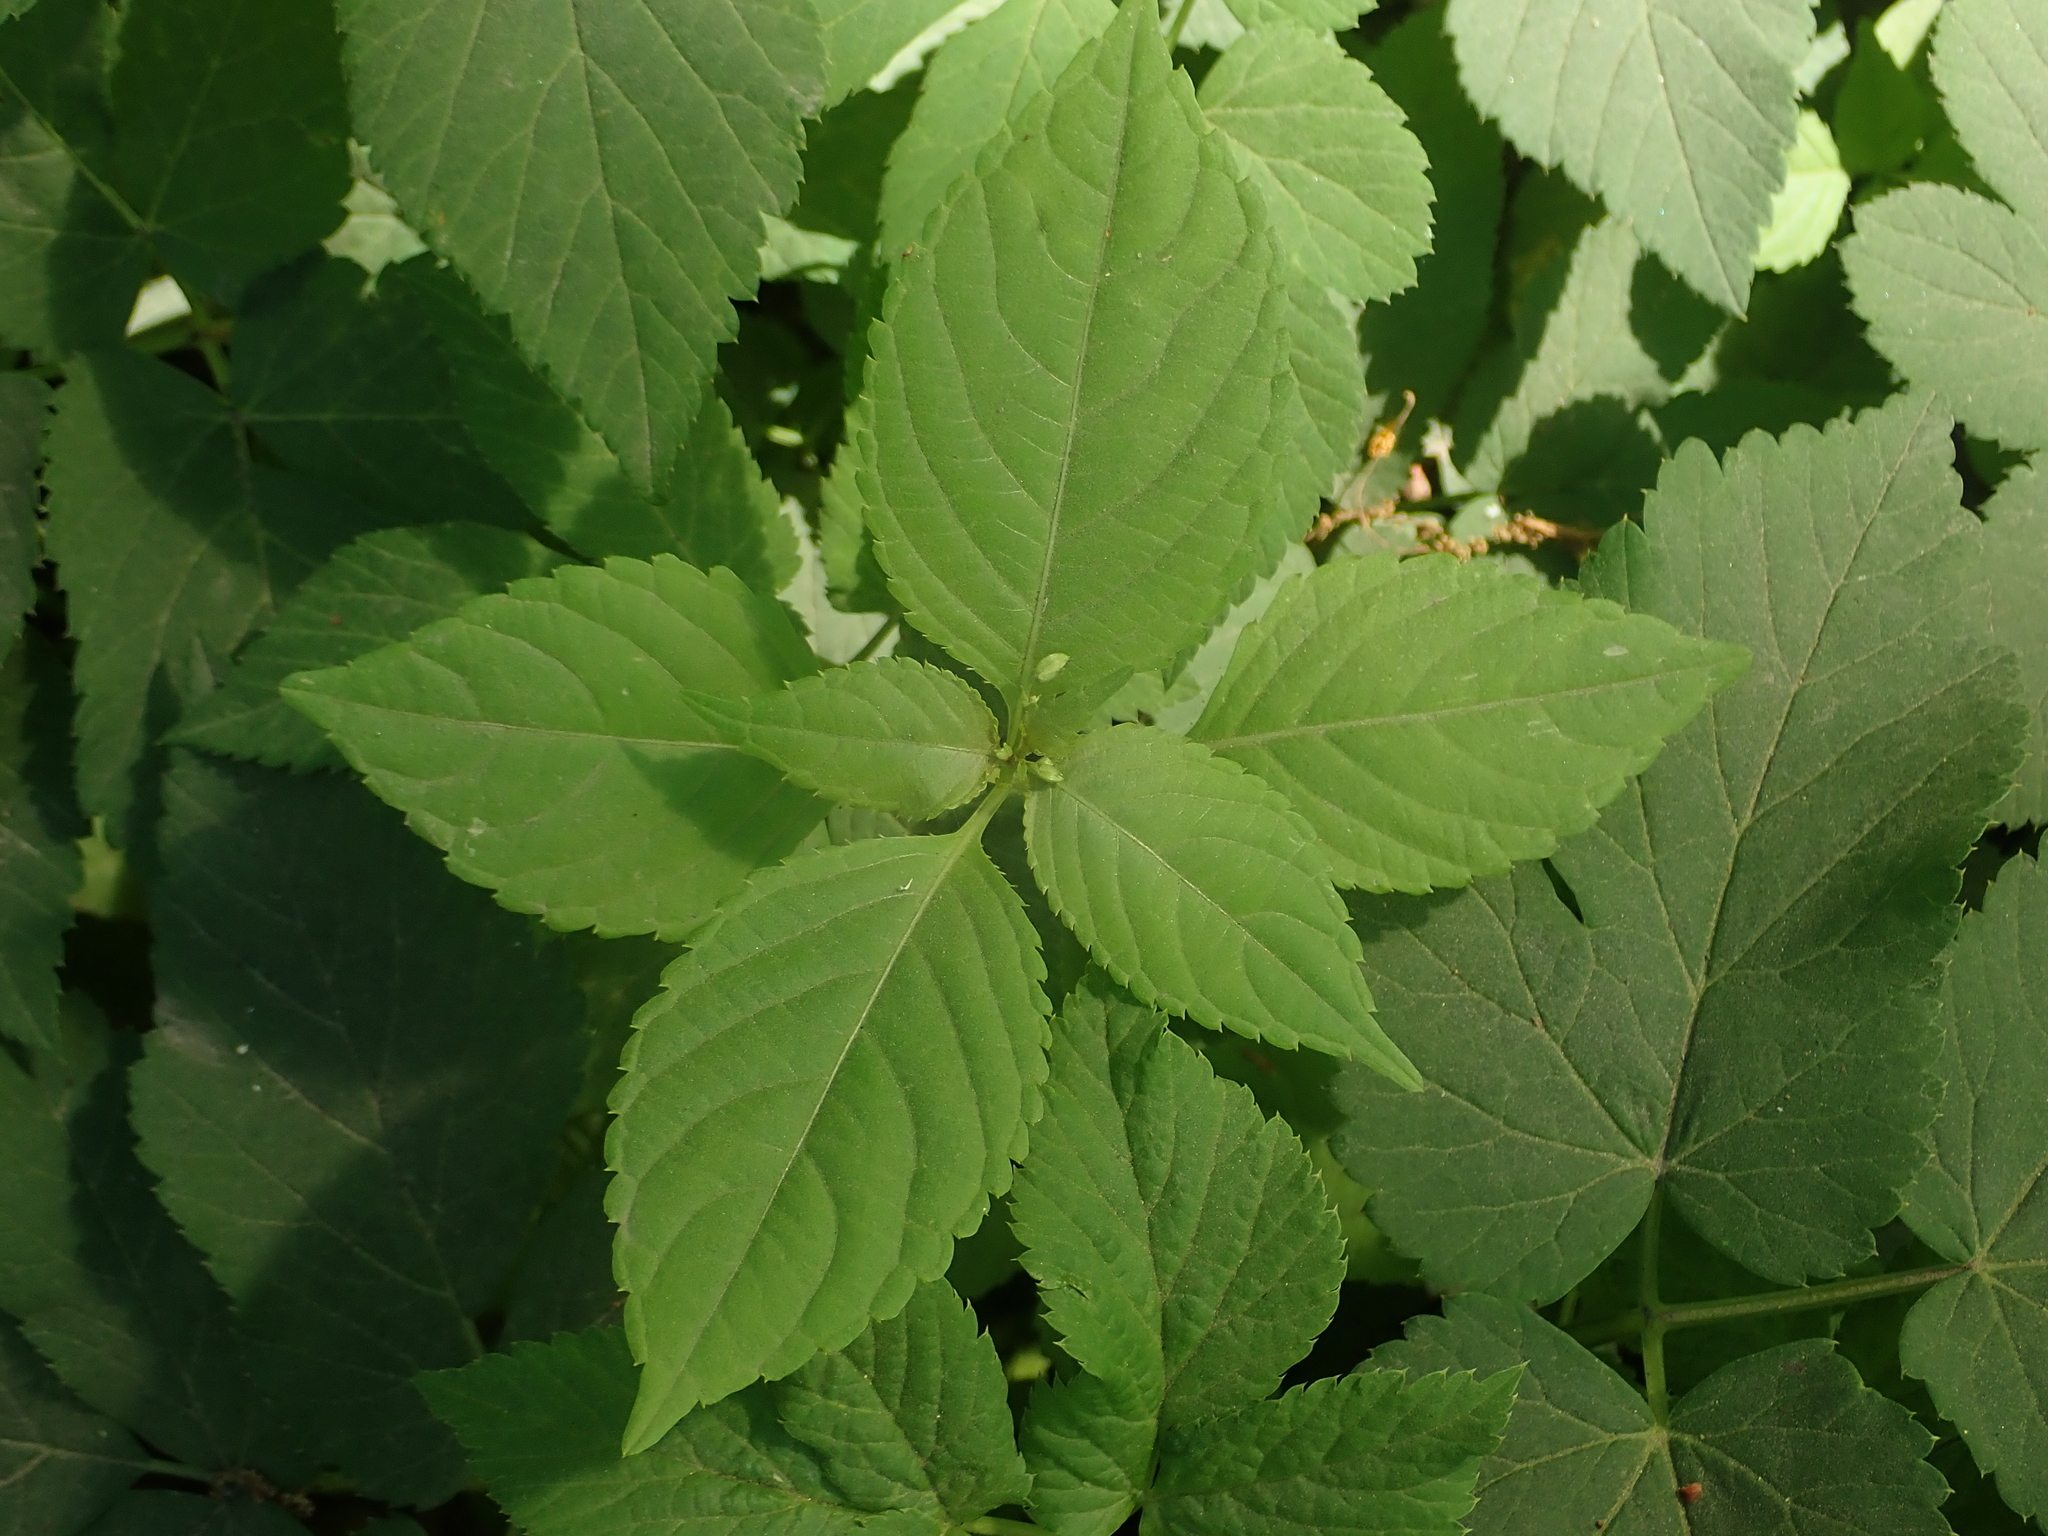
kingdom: Plantae
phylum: Tracheophyta
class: Magnoliopsida
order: Ericales
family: Balsaminaceae
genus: Impatiens
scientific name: Impatiens parviflora
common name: Small balsam
